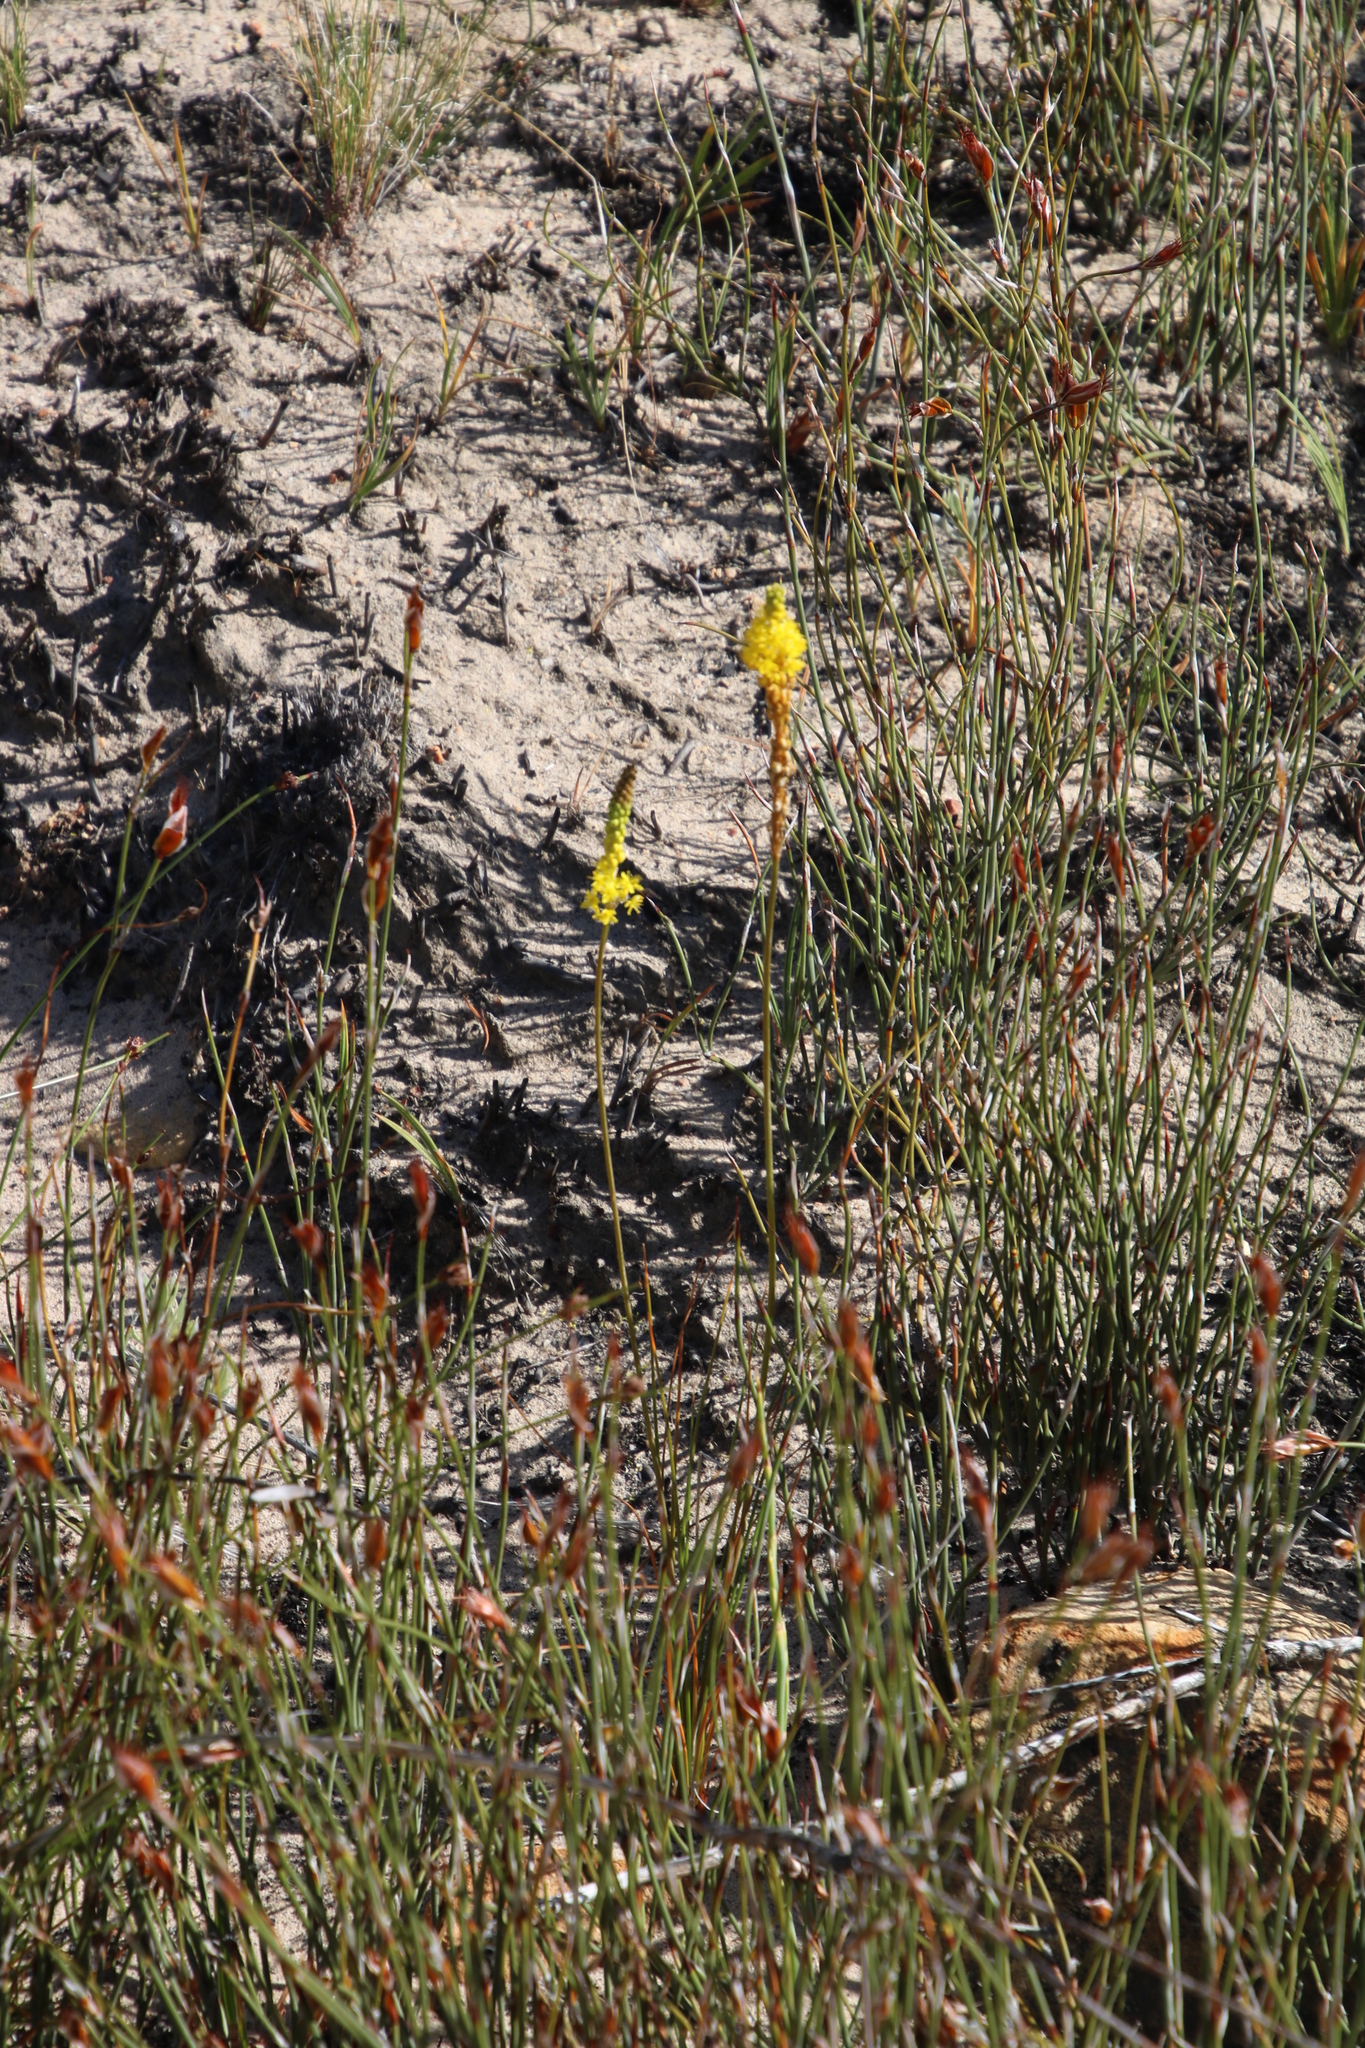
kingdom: Plantae
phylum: Tracheophyta
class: Liliopsida
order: Asparagales
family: Asphodelaceae
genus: Bulbinella
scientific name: Bulbinella triquetra
